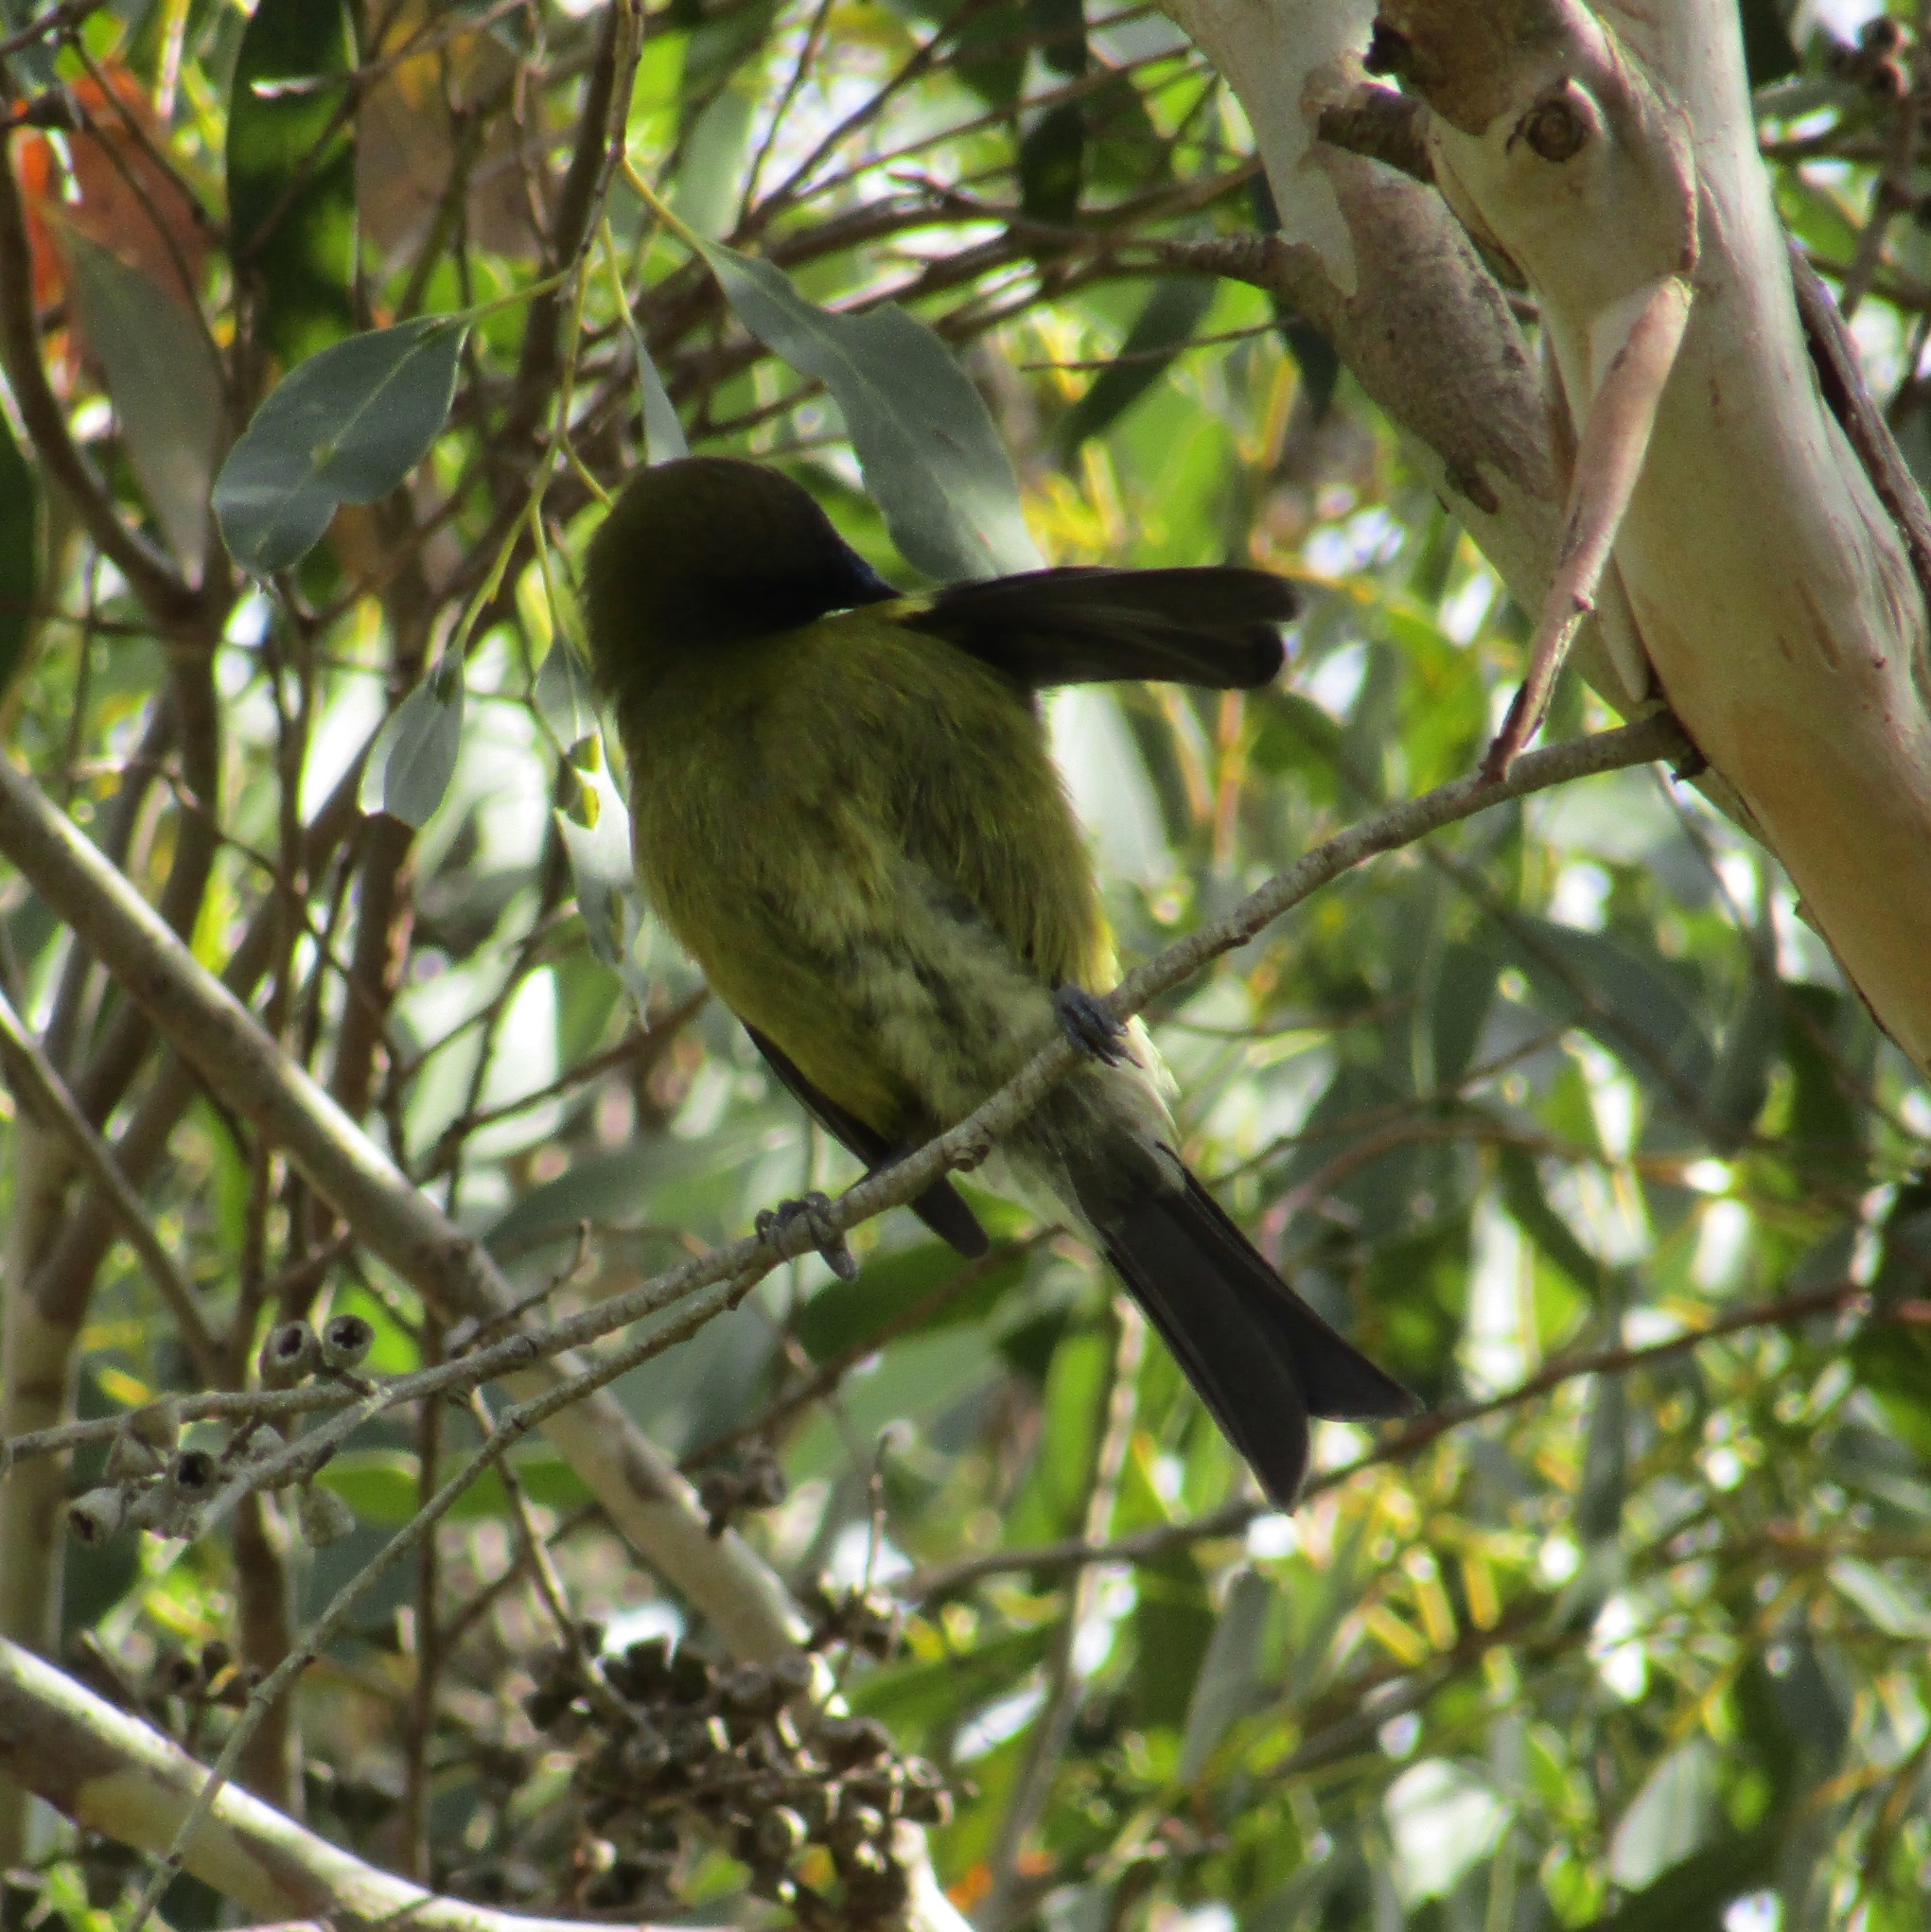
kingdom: Animalia
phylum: Chordata
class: Aves
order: Passeriformes
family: Meliphagidae
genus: Anthornis
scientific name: Anthornis melanura
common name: New zealand bellbird
